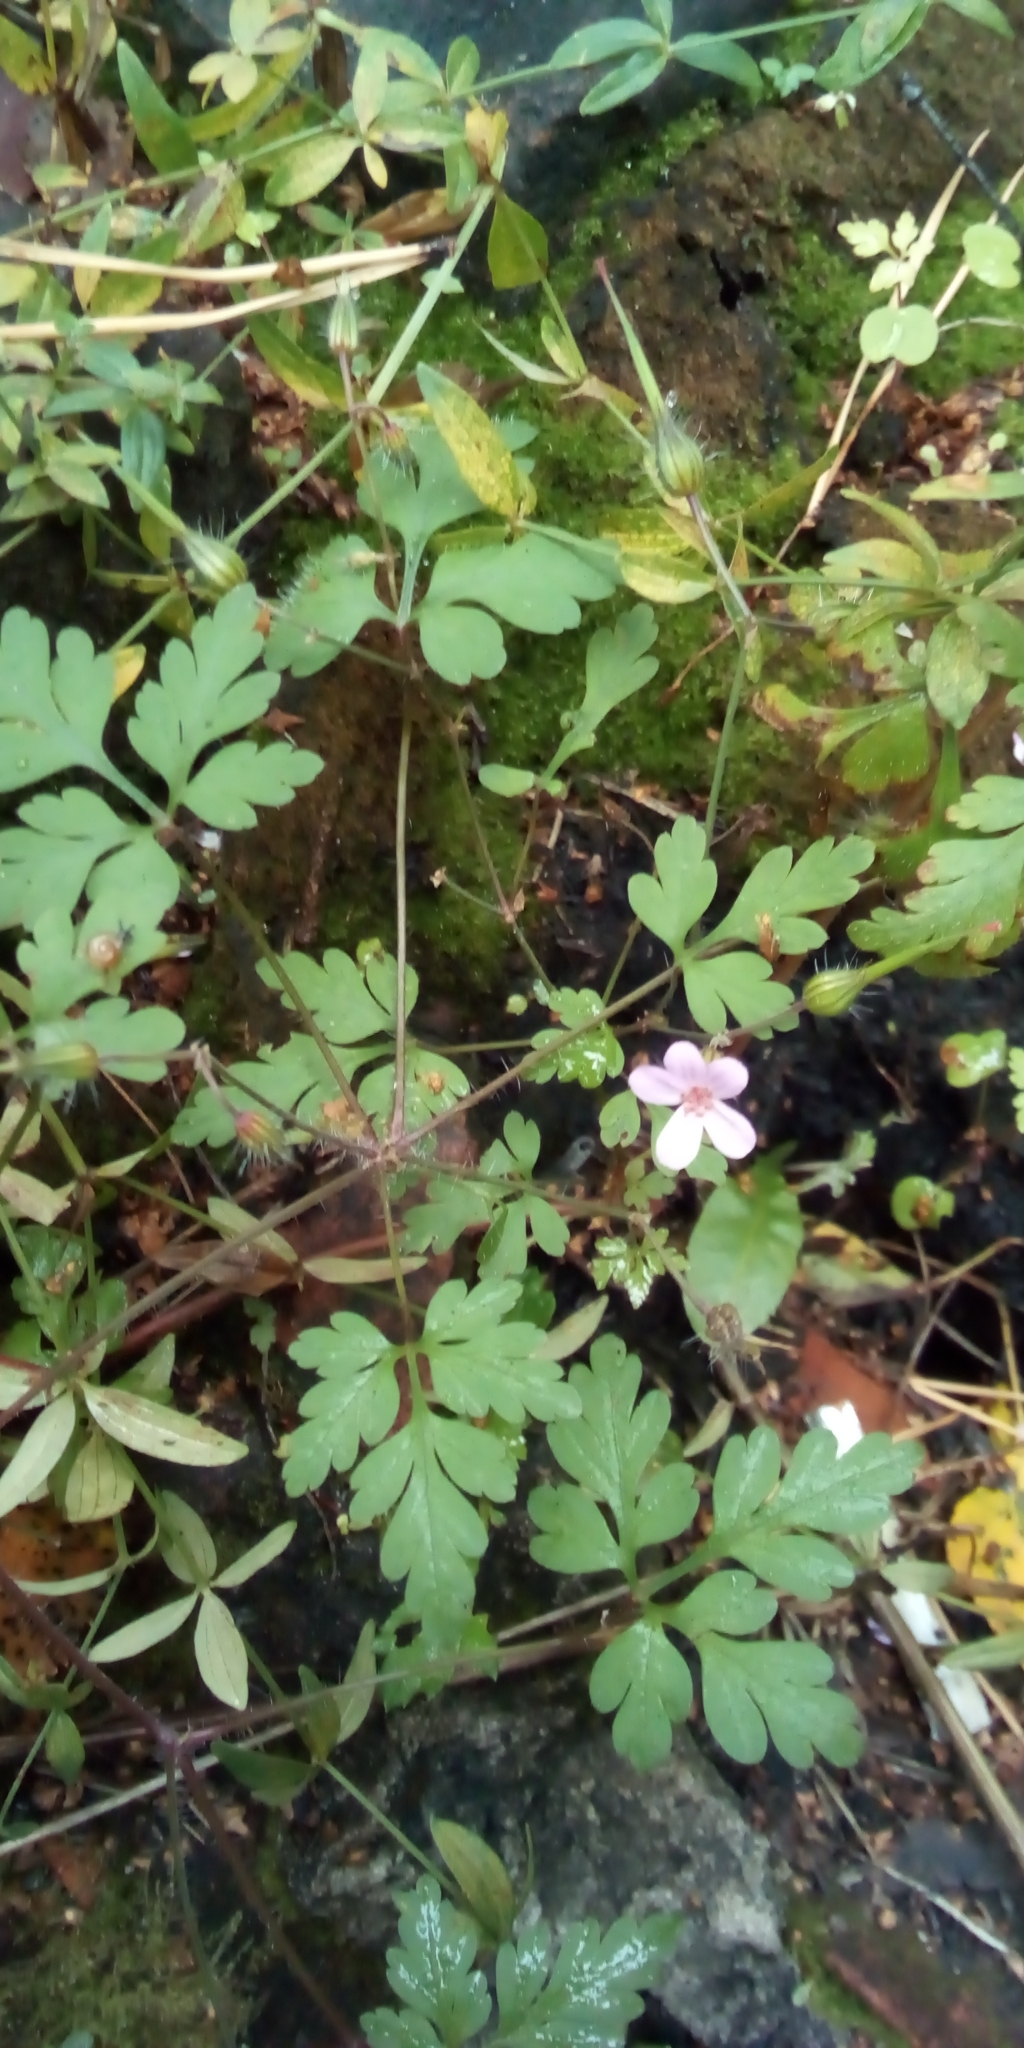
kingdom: Plantae
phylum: Tracheophyta
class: Magnoliopsida
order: Geraniales
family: Geraniaceae
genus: Geranium
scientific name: Geranium robertianum
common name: Herb-robert
